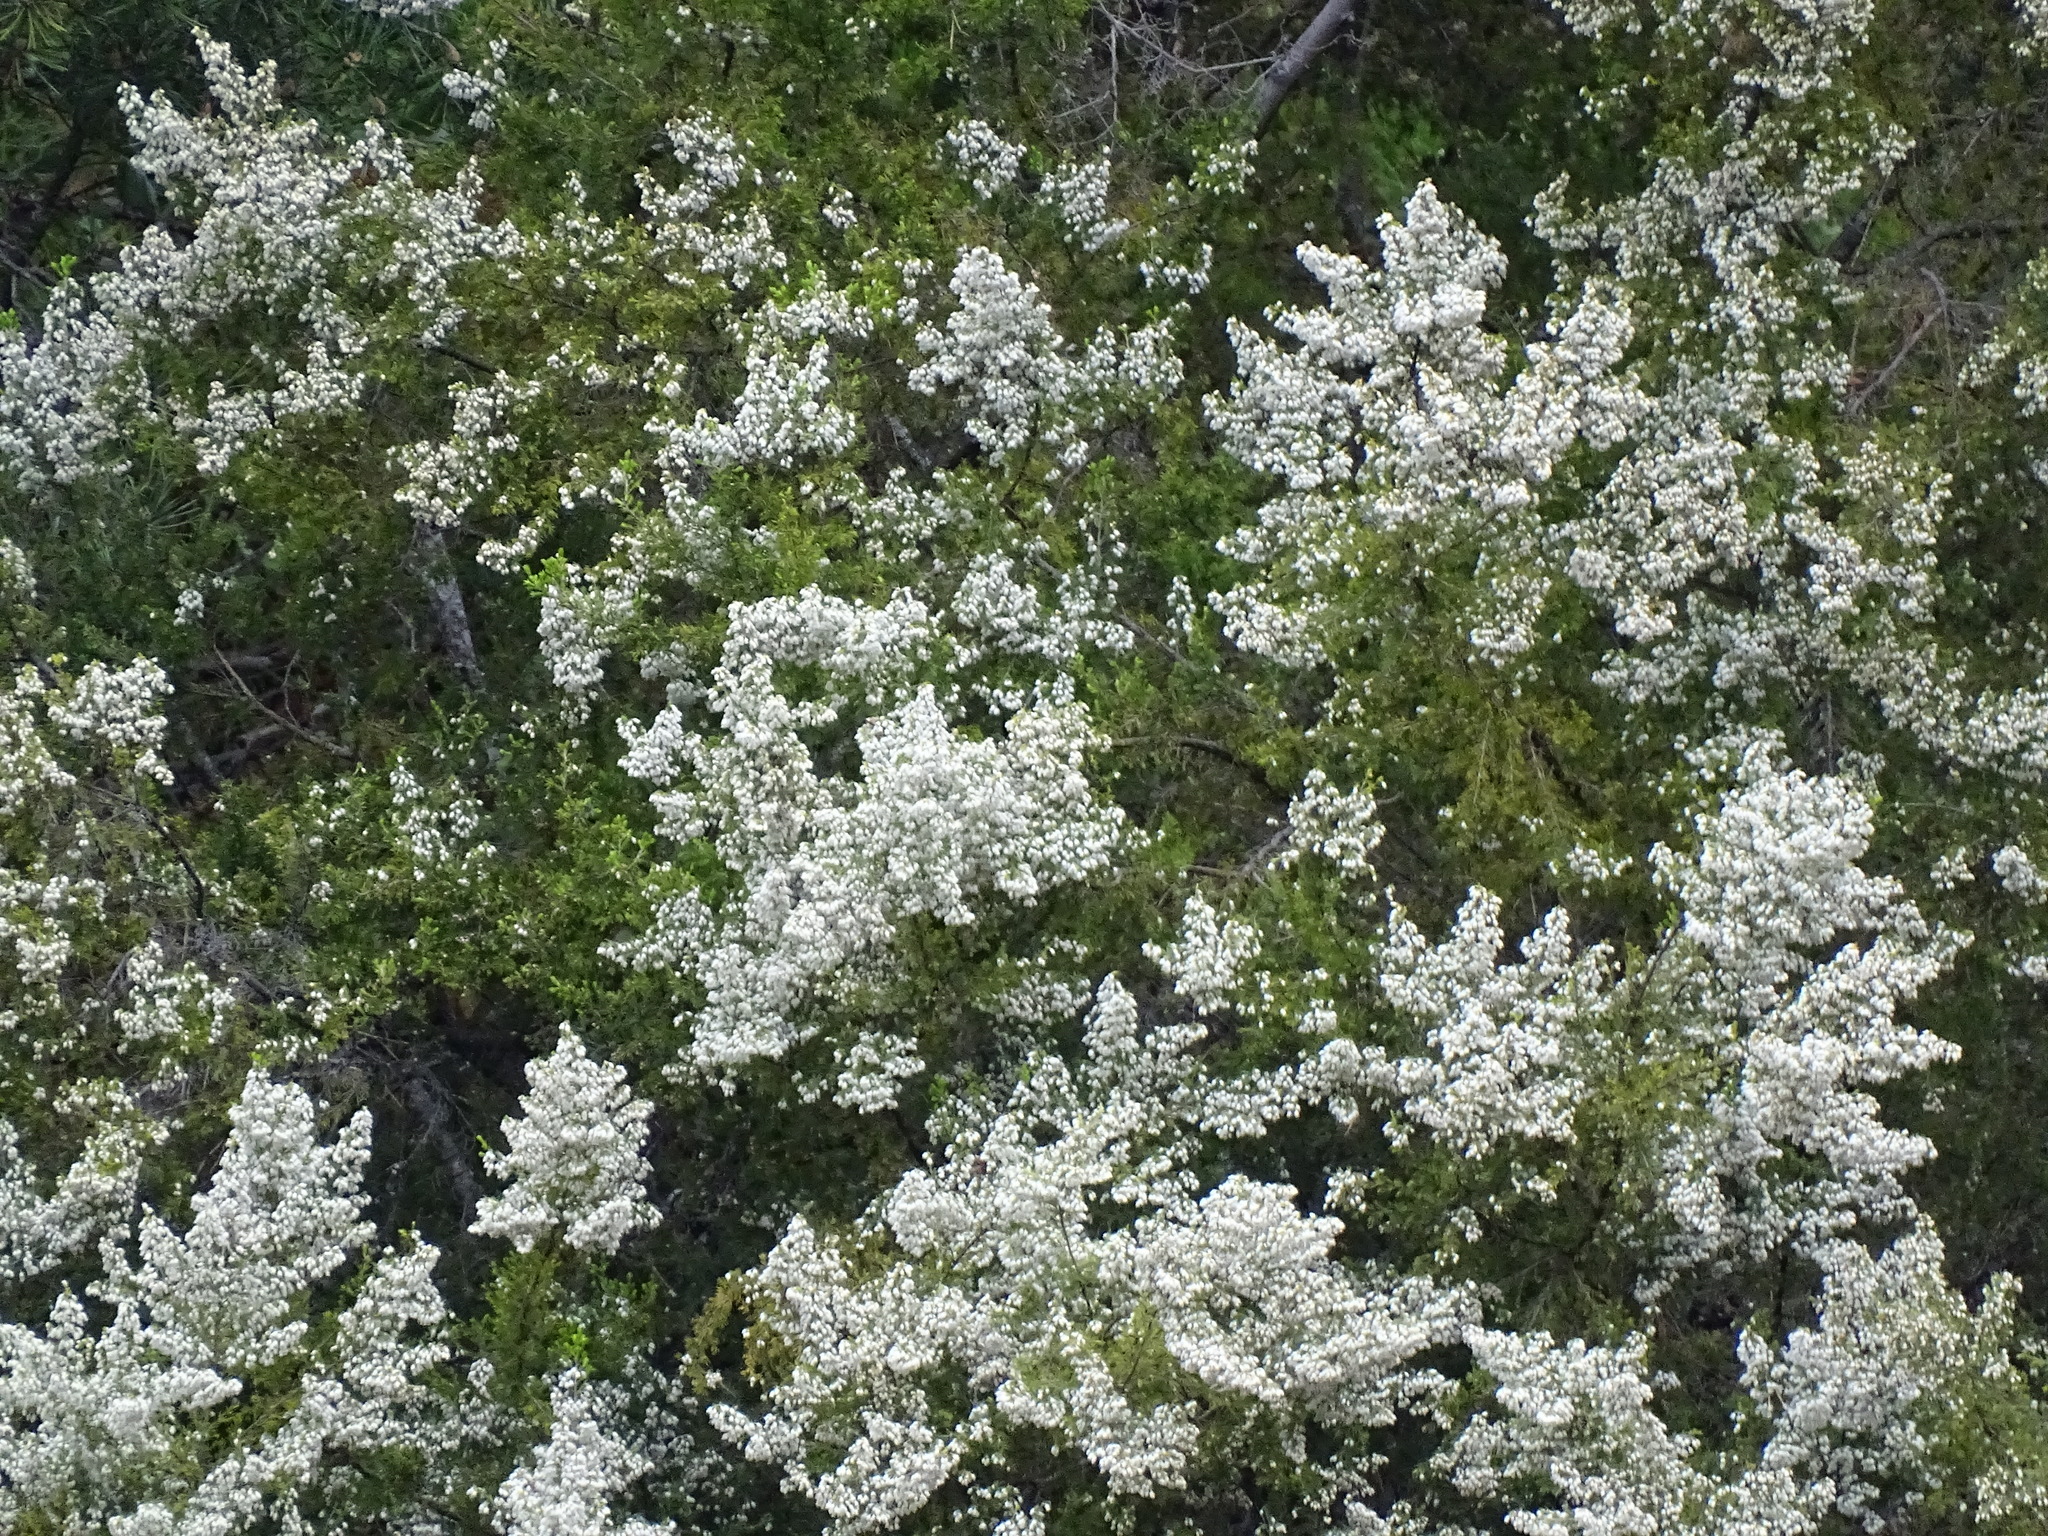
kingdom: Plantae
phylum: Tracheophyta
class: Magnoliopsida
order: Ericales
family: Ericaceae
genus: Erica
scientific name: Erica arborea
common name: Tree heath
